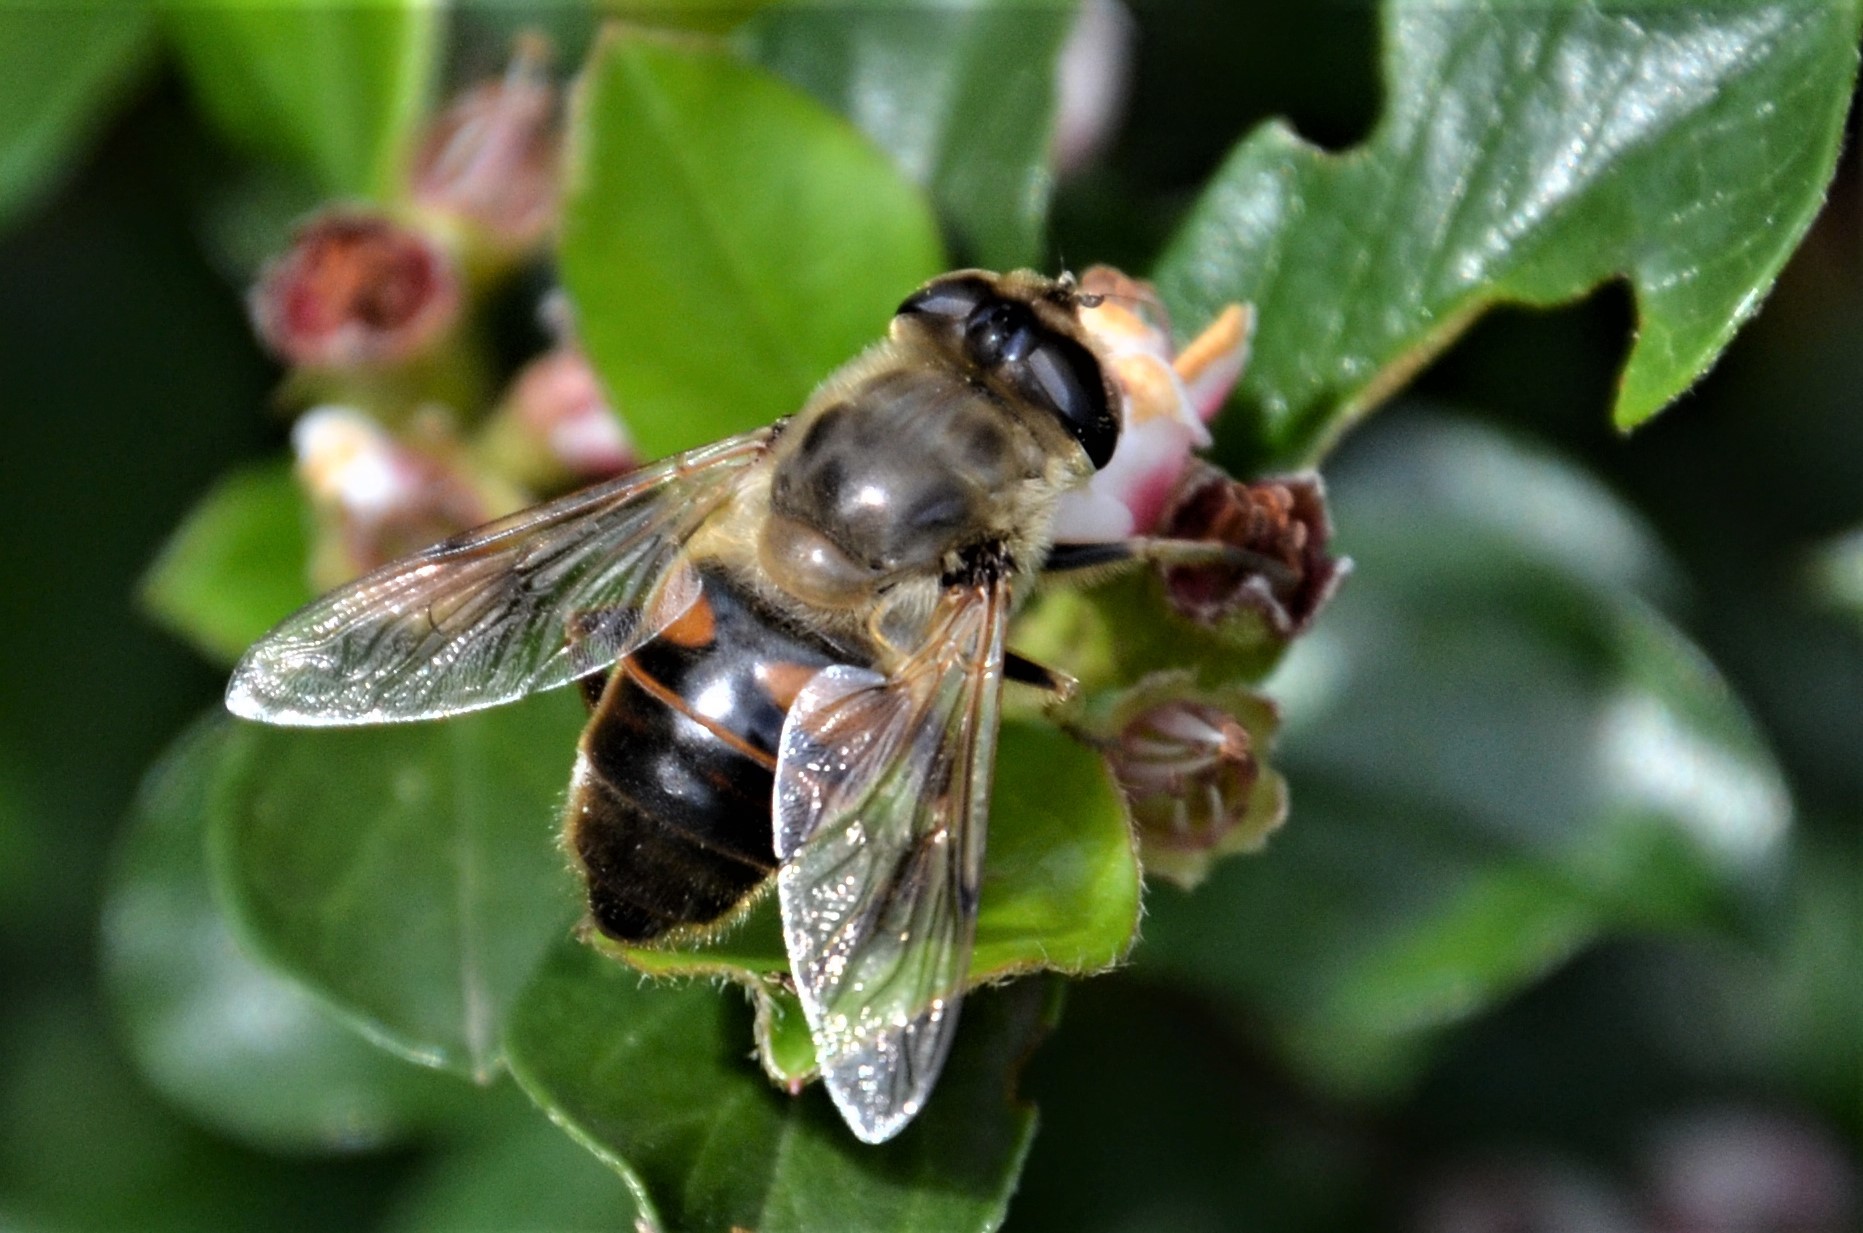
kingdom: Animalia
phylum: Arthropoda
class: Insecta
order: Diptera
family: Syrphidae
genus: Eristalis
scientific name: Eristalis tenax
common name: Drone fly
